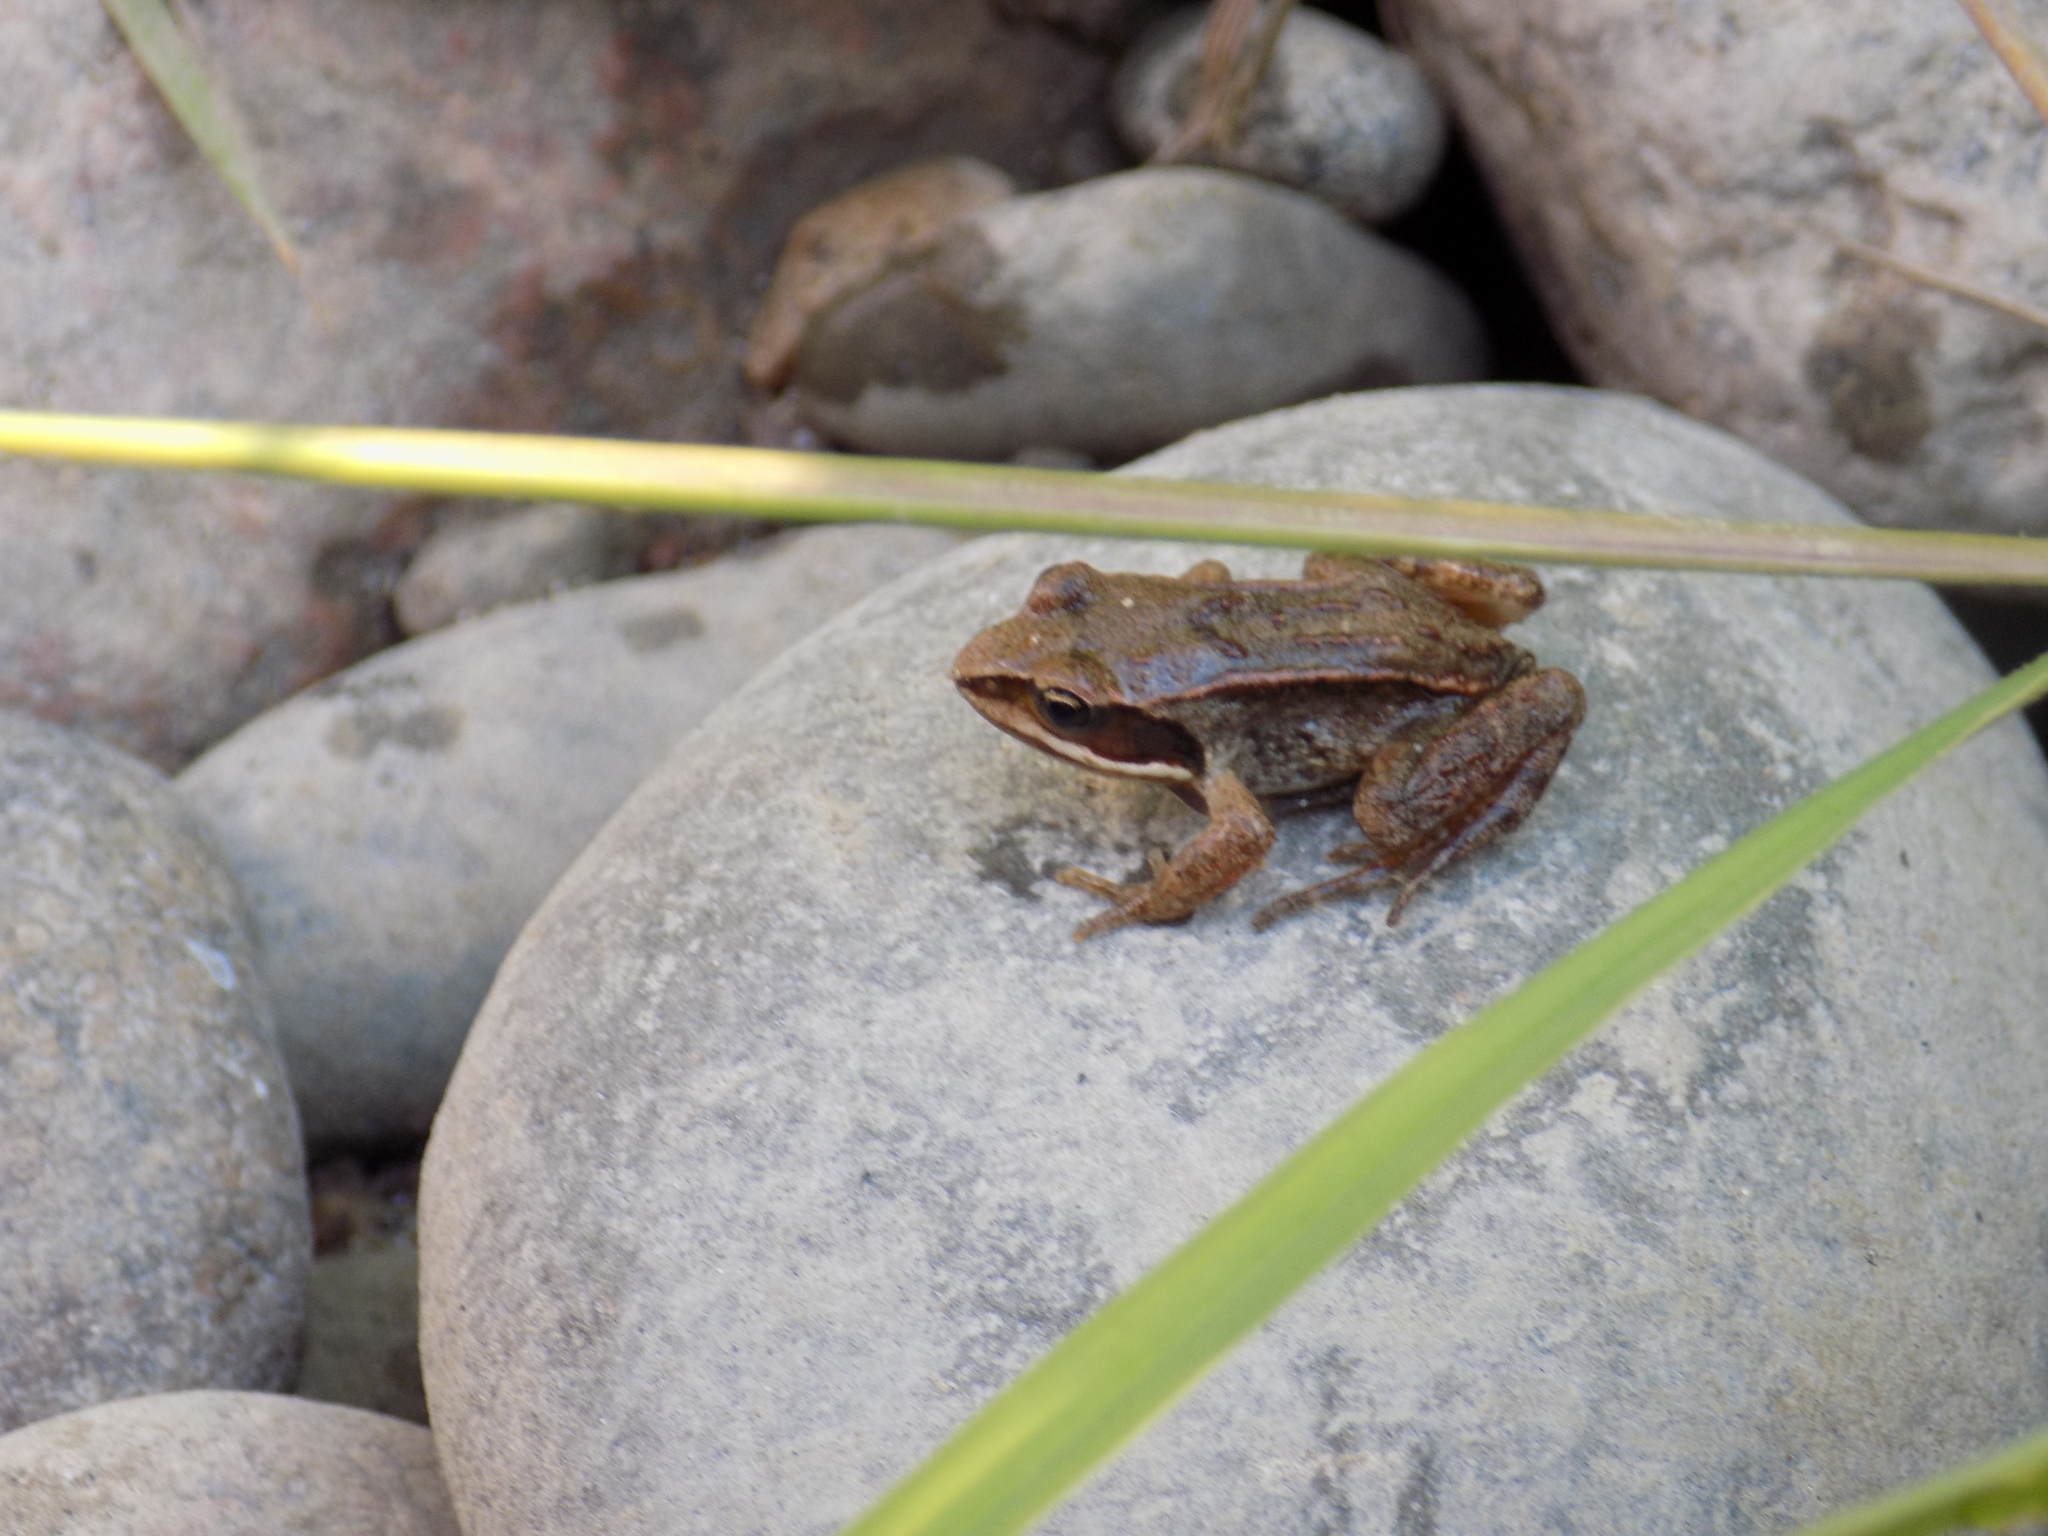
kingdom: Animalia
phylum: Chordata
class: Amphibia
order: Anura
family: Ranidae
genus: Rana
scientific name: Rana arvalis
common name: Moor frog
